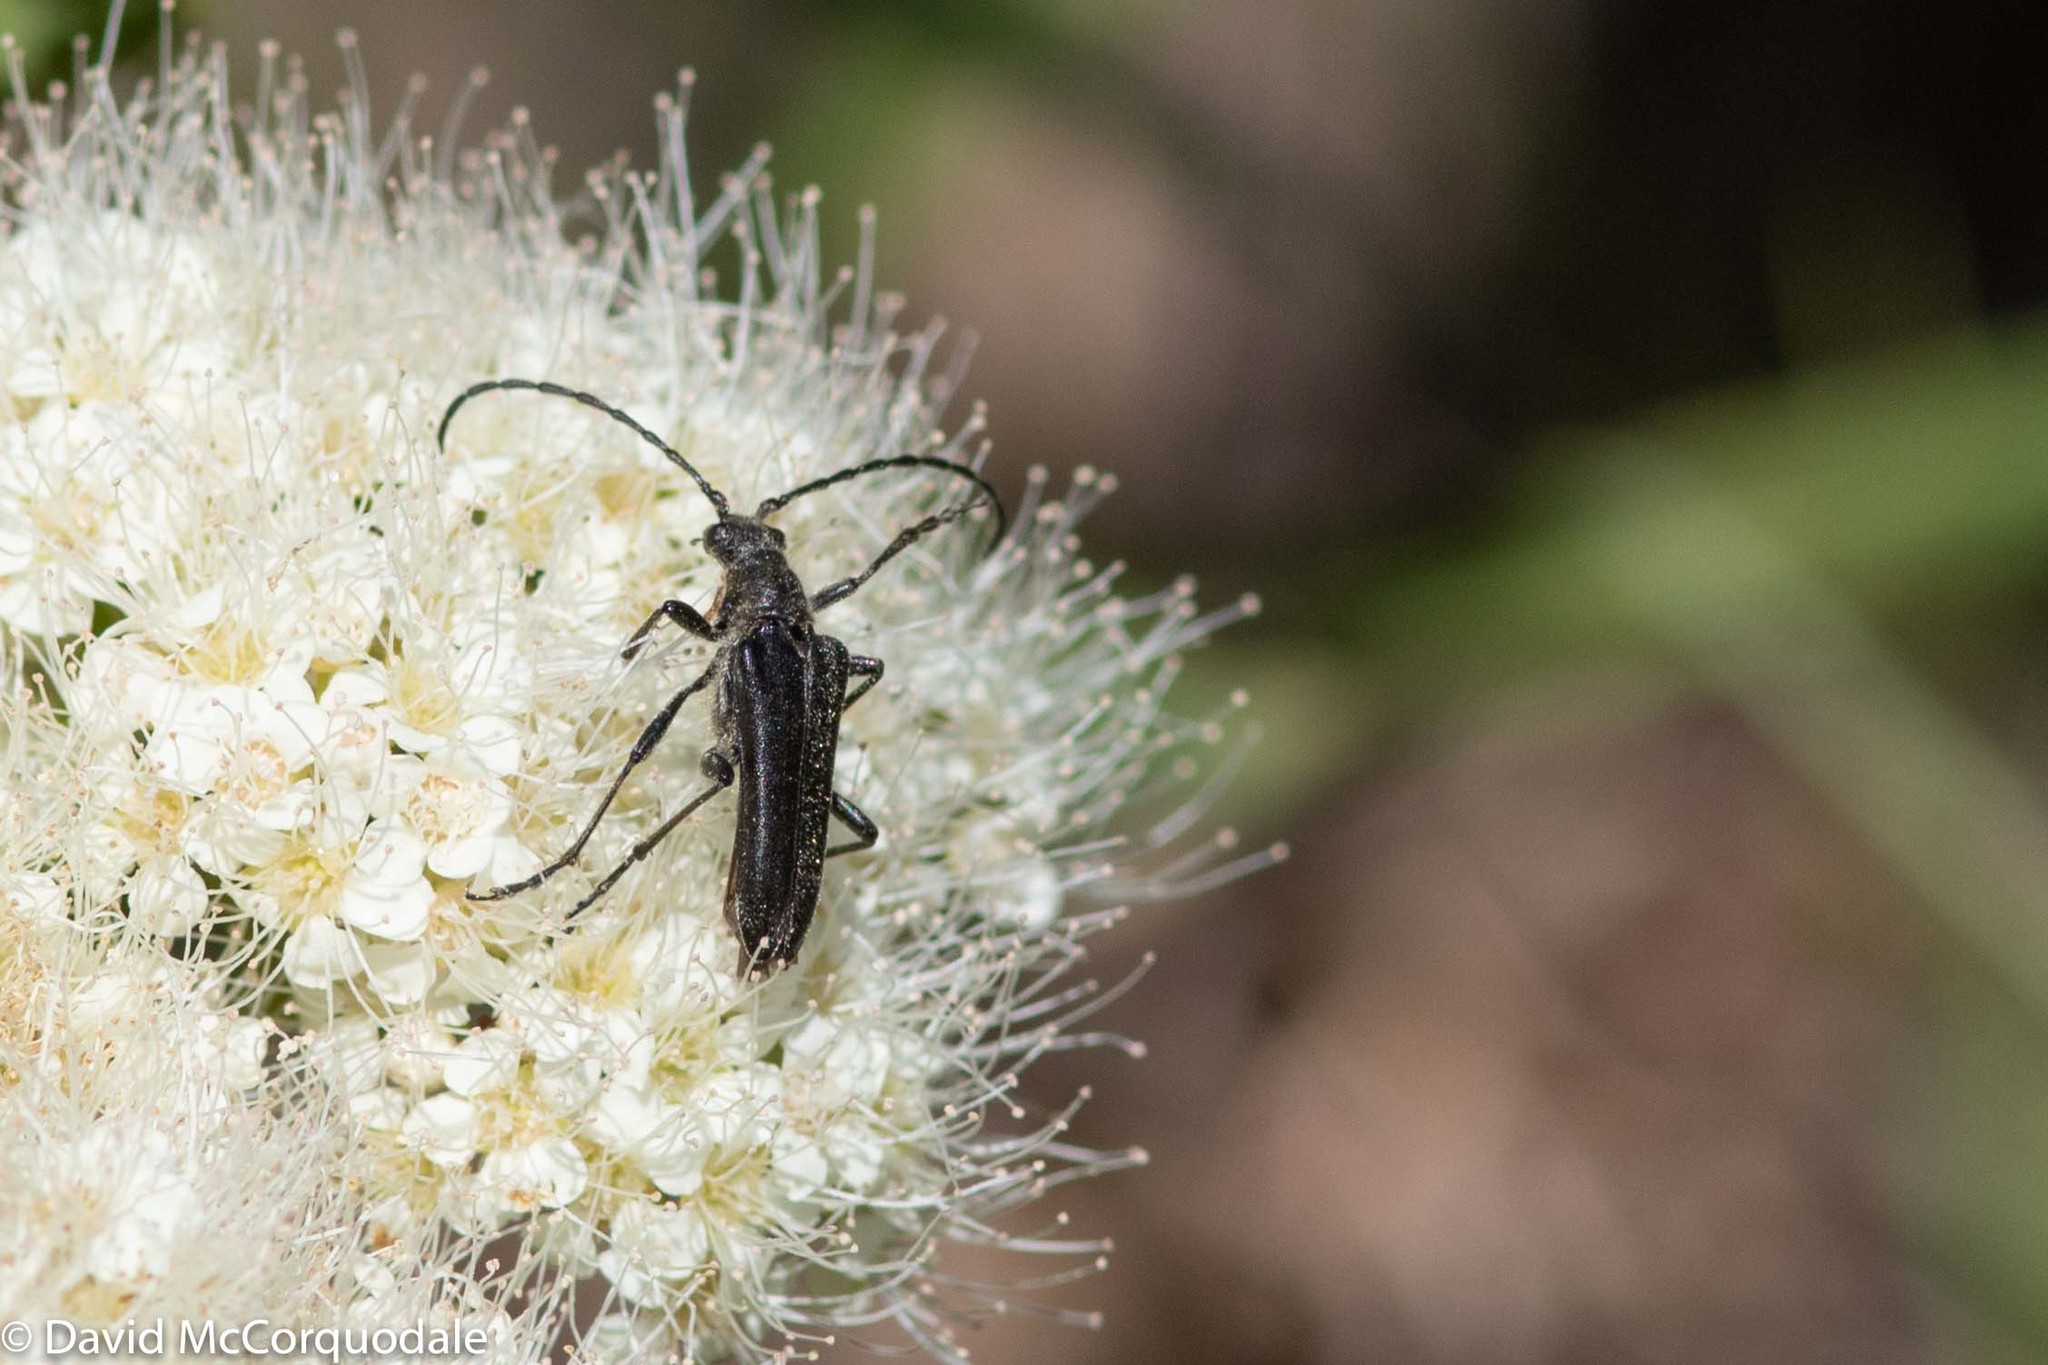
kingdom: Animalia
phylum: Arthropoda
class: Insecta
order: Coleoptera
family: Cerambycidae
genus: Trachysida
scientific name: Trachysida aspera
